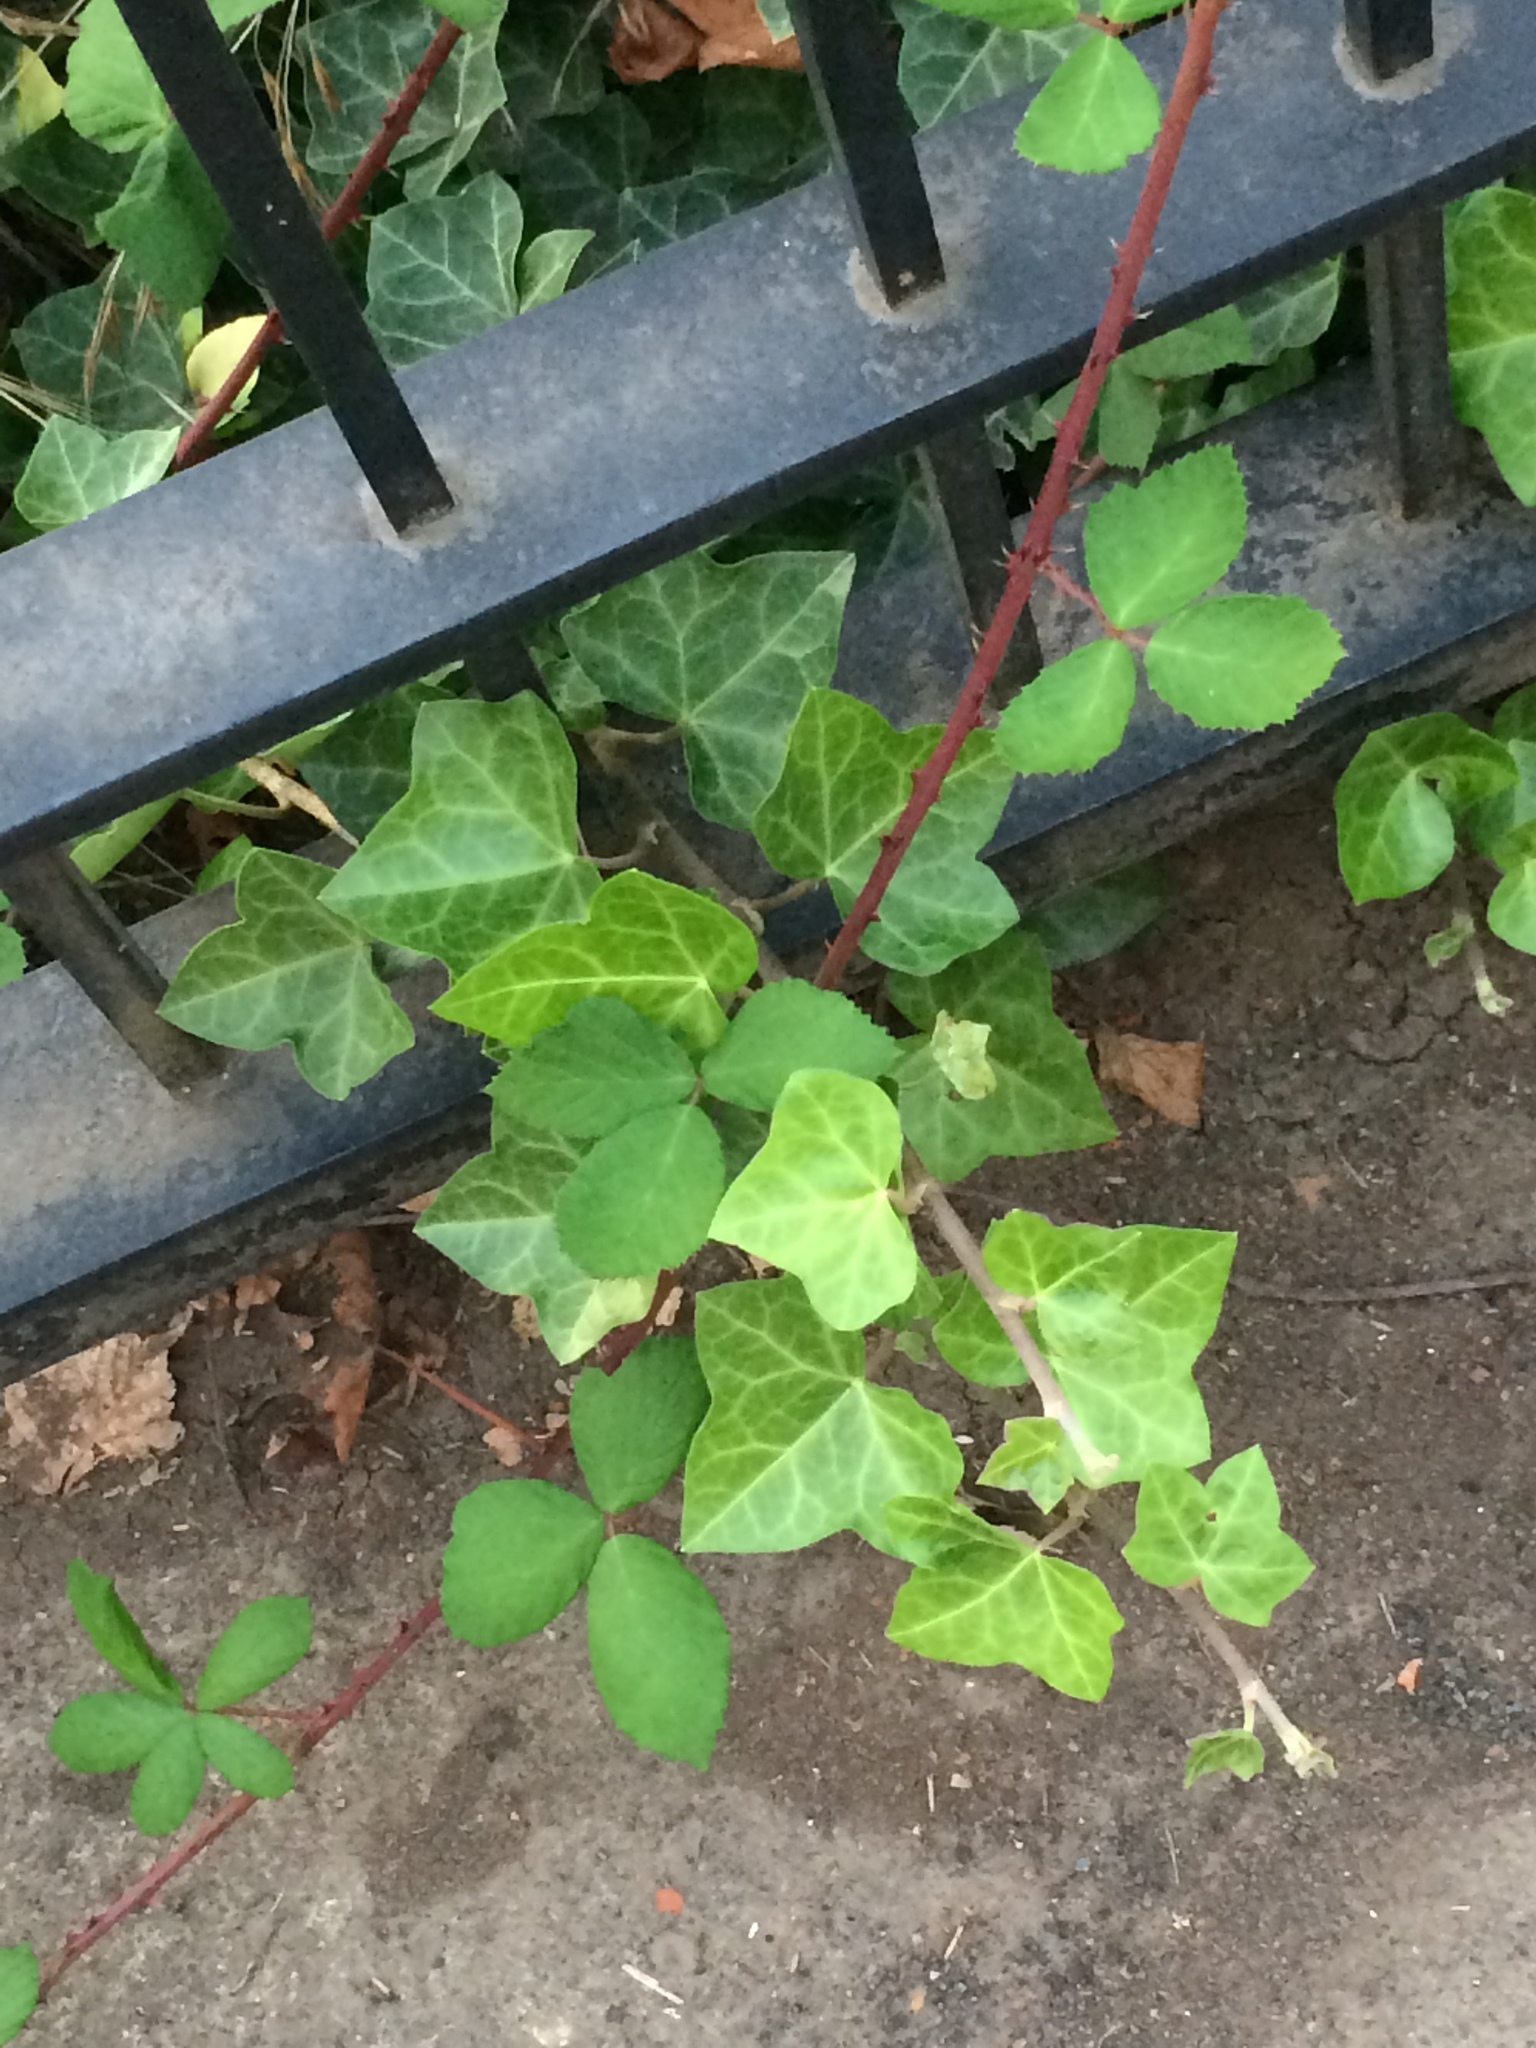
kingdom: Plantae
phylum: Tracheophyta
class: Magnoliopsida
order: Apiales
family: Araliaceae
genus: Hedera
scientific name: Hedera helix
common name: Ivy
